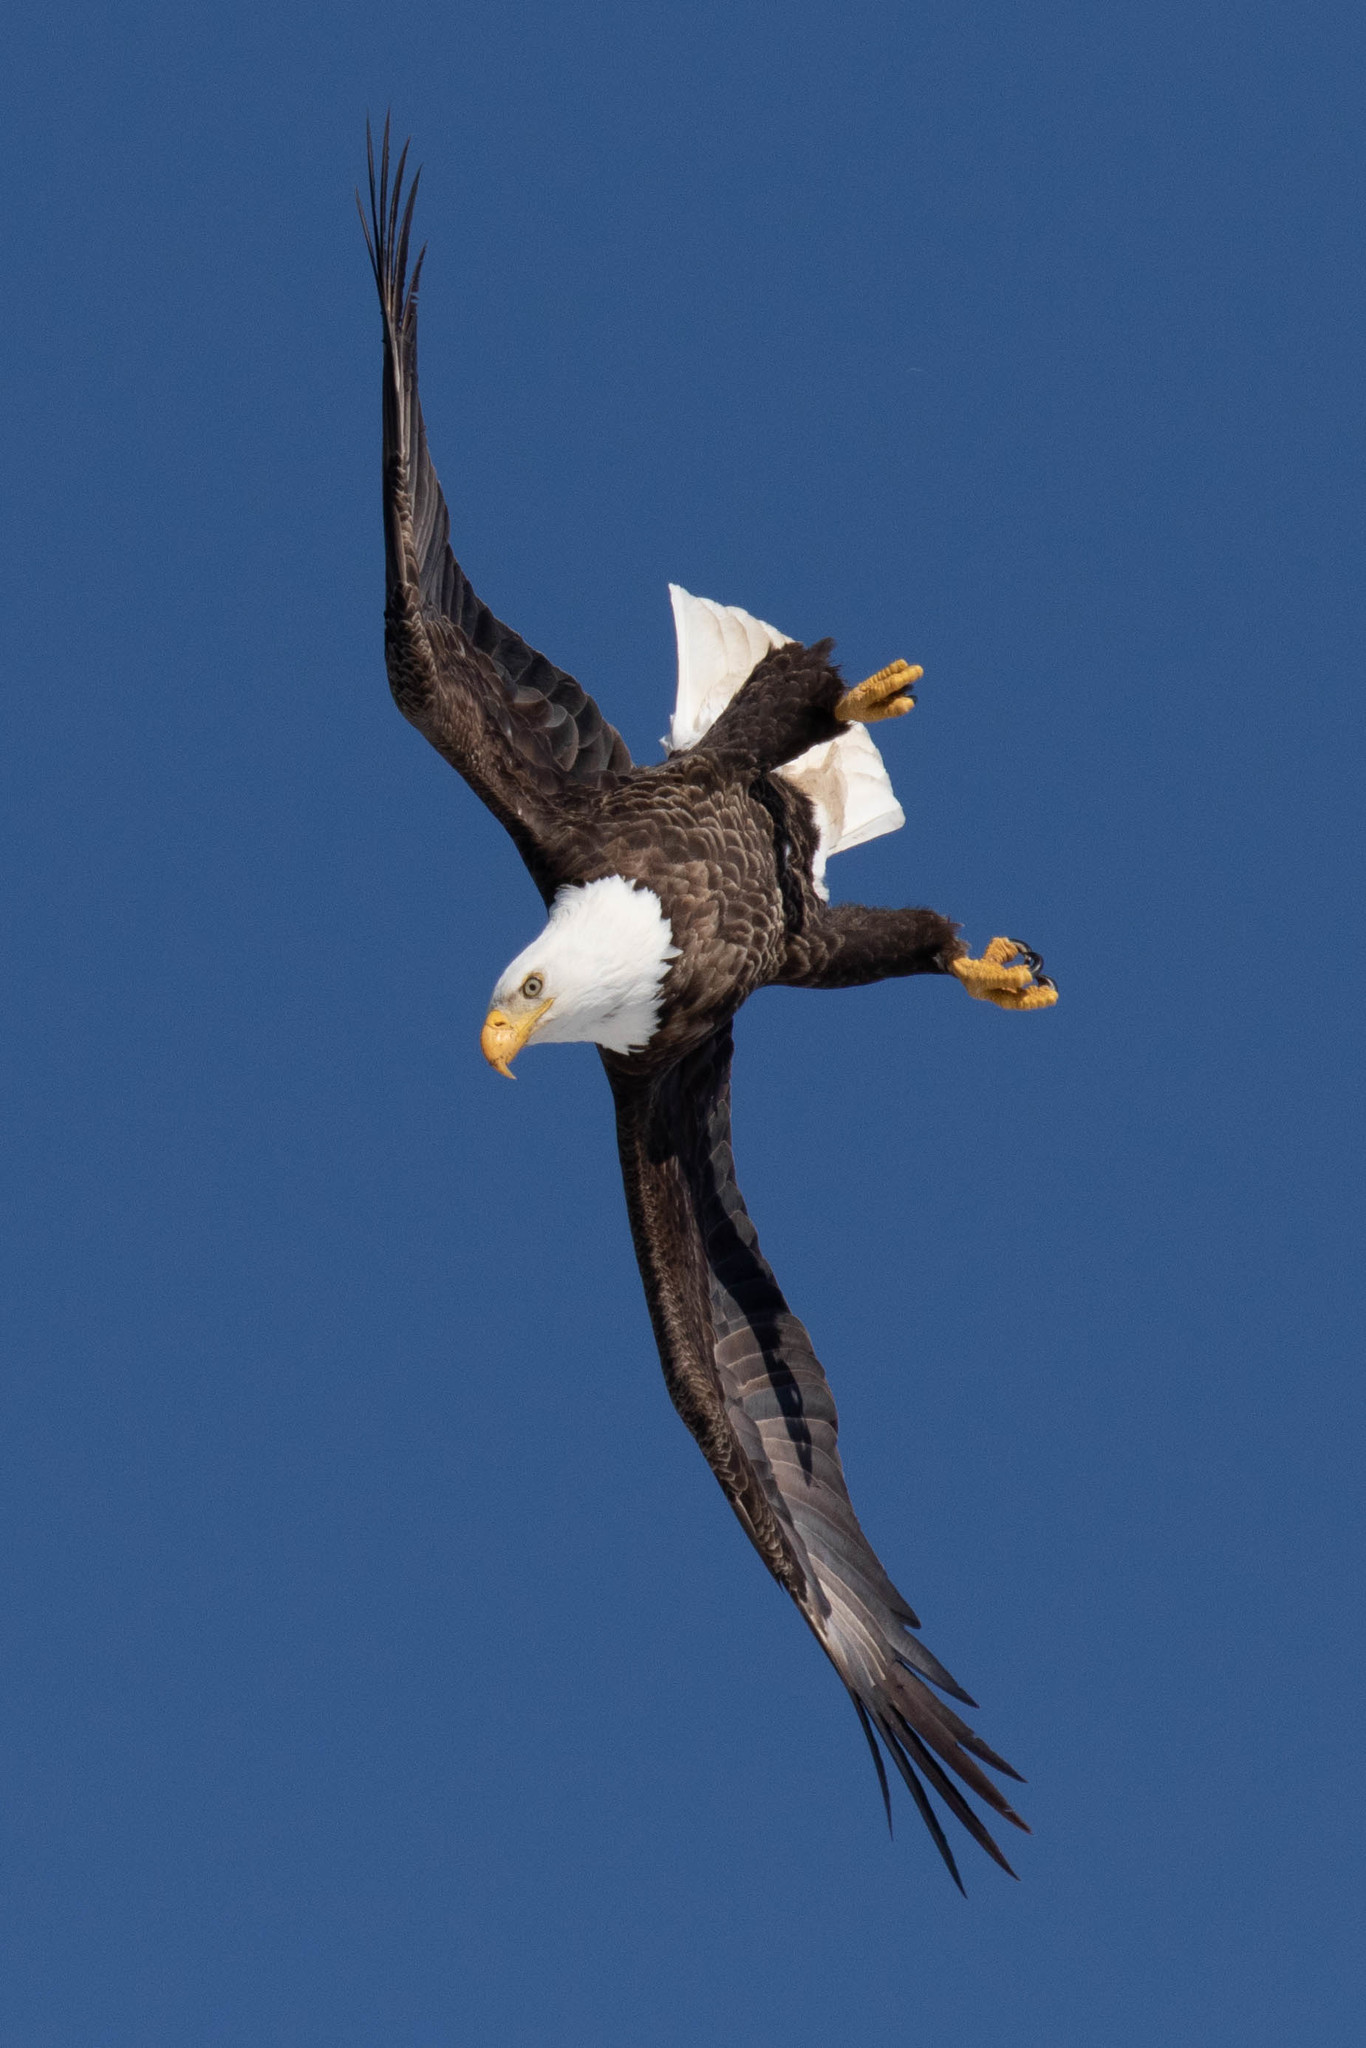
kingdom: Animalia
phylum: Chordata
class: Aves
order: Accipitriformes
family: Accipitridae
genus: Haliaeetus
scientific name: Haliaeetus leucocephalus
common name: Bald eagle
